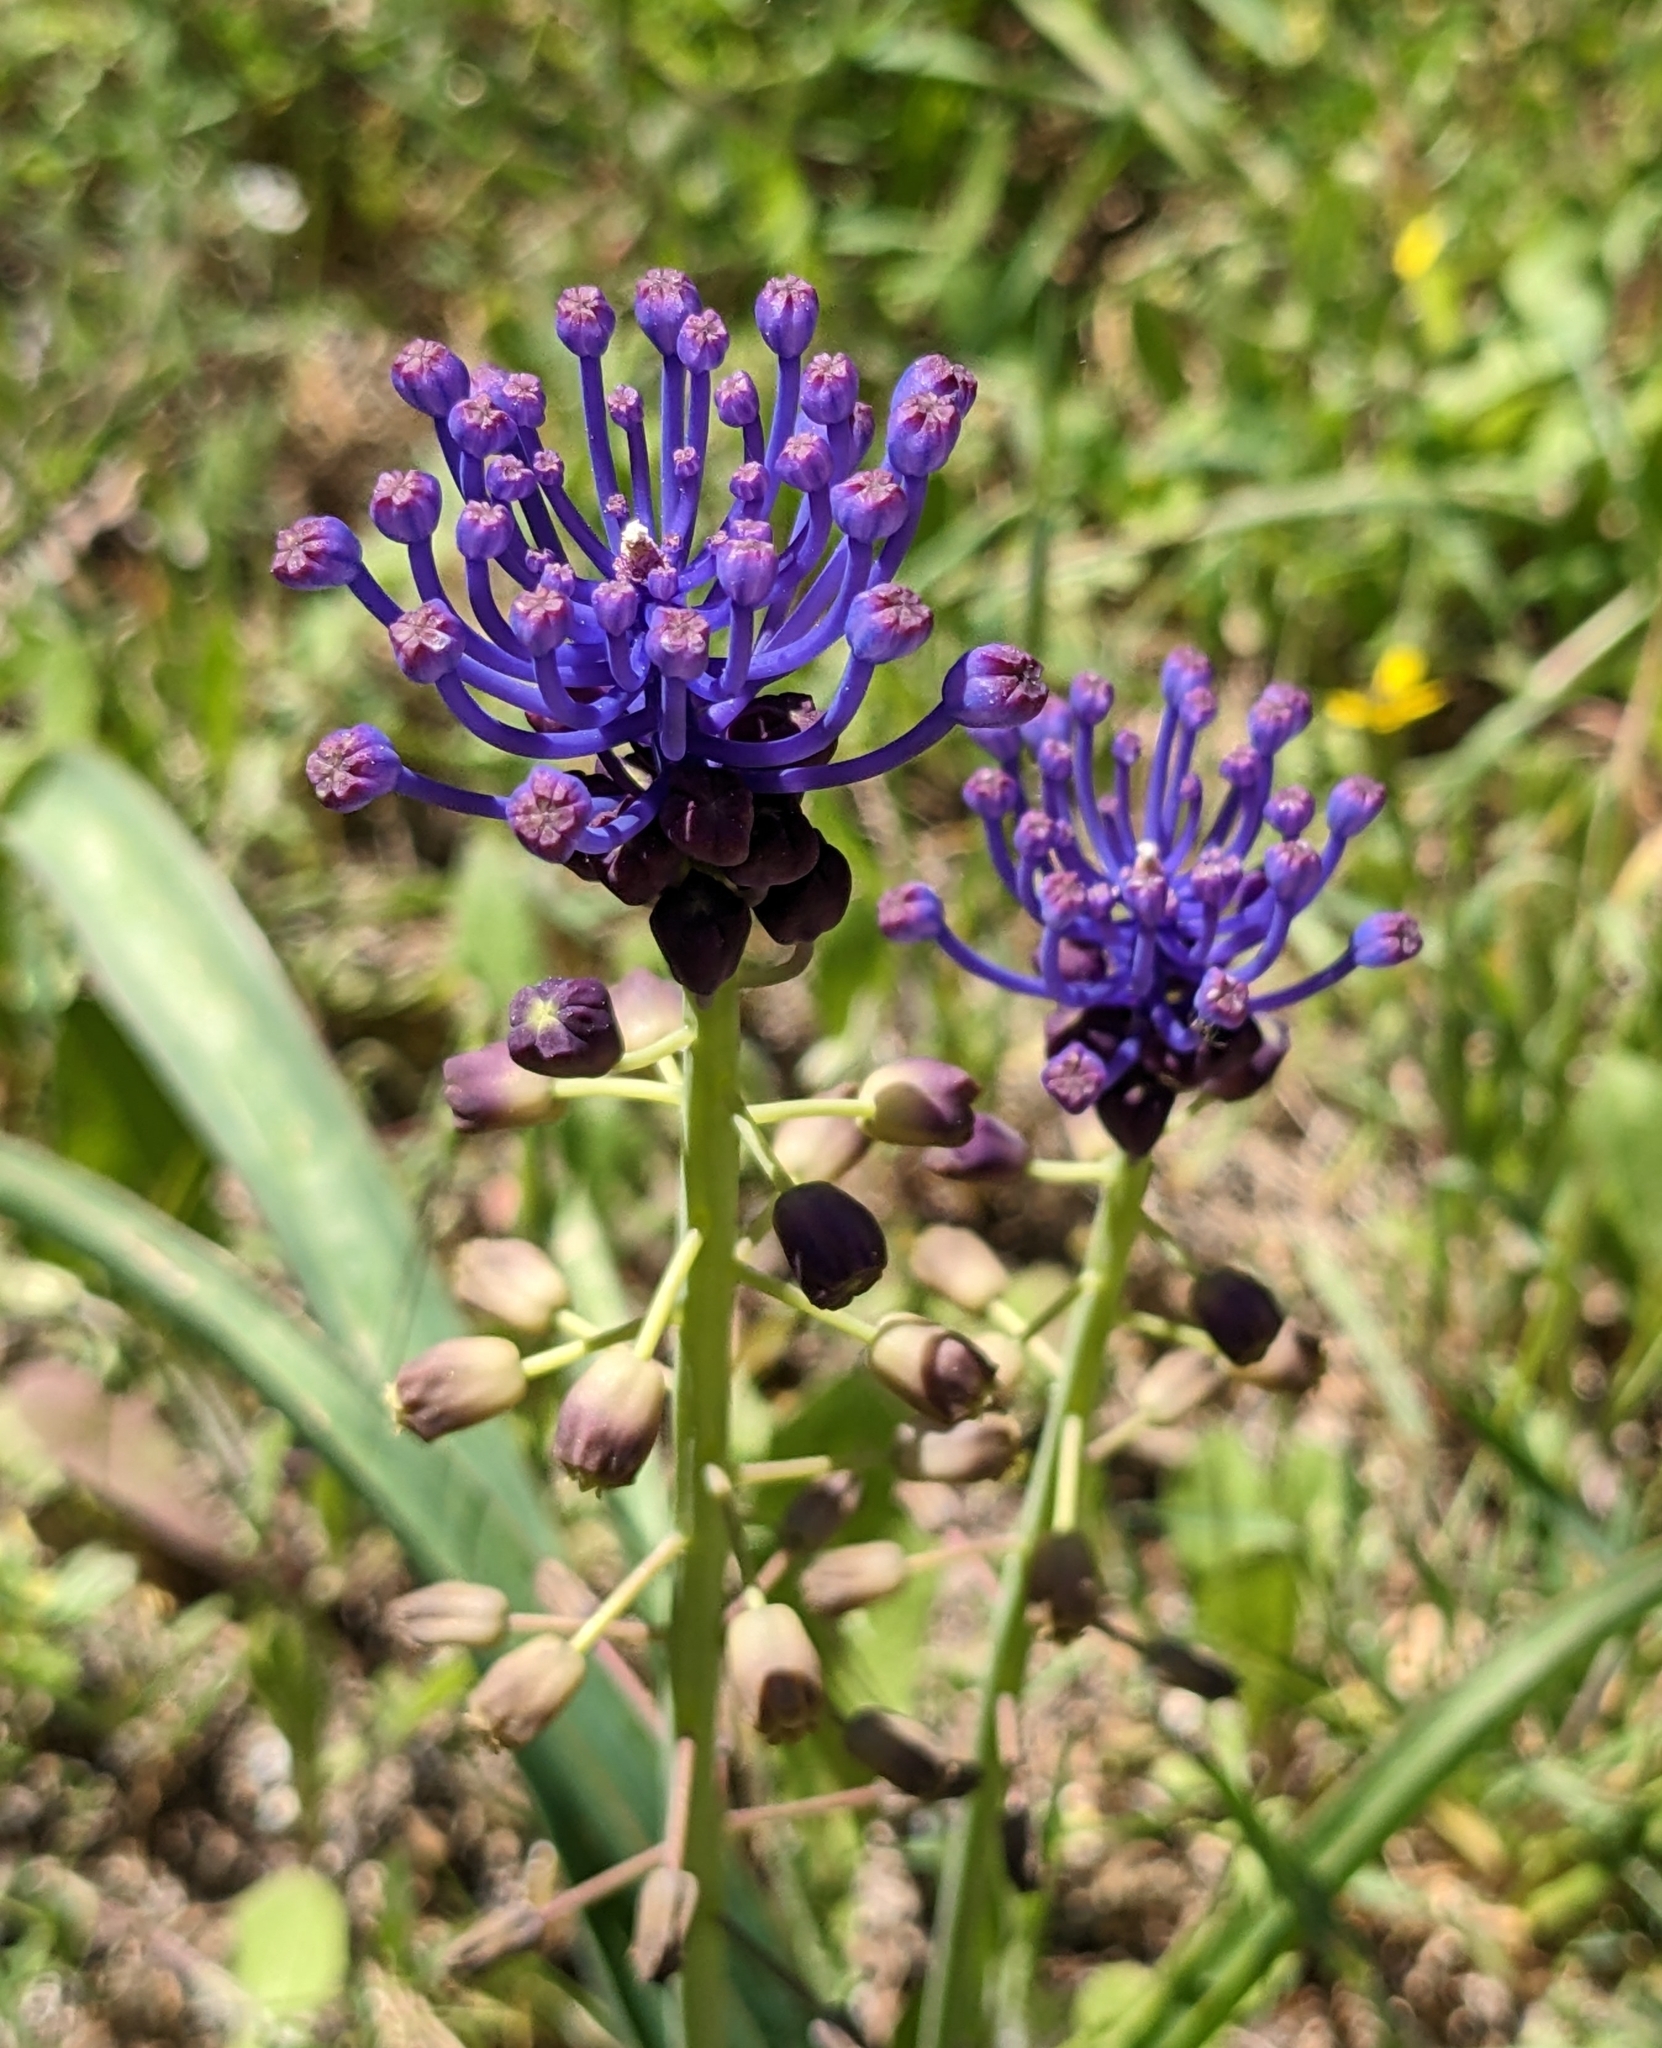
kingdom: Plantae
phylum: Tracheophyta
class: Liliopsida
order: Asparagales
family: Asparagaceae
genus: Muscari
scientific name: Muscari comosum
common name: Tassel hyacinth
